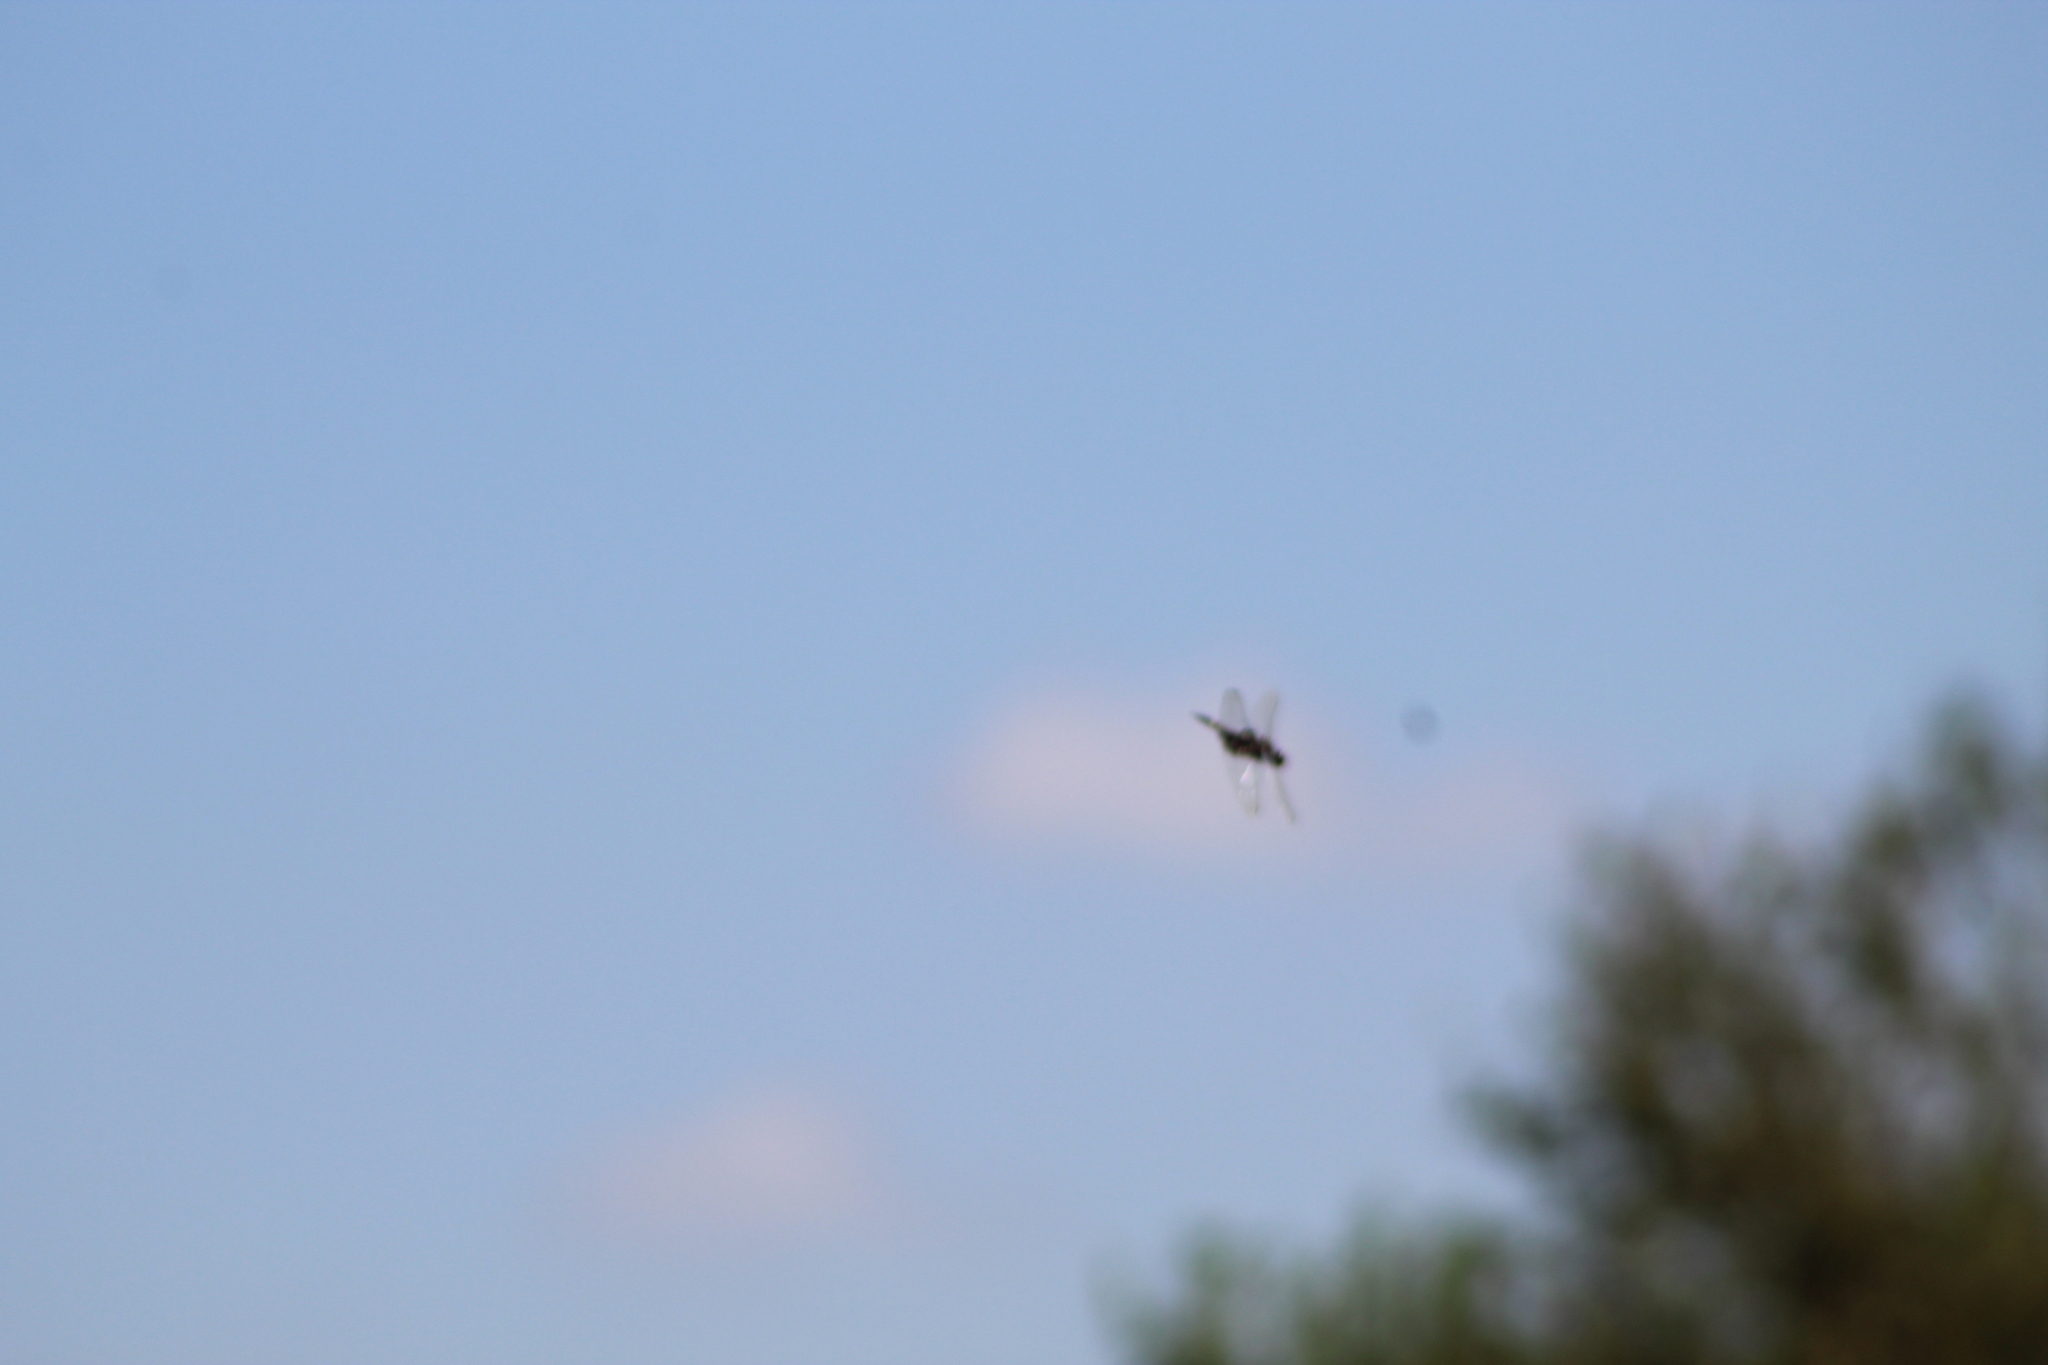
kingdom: Animalia
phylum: Chordata
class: Aves
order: Pelecaniformes
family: Ardeidae
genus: Ardea
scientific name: Ardea alba
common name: Great egret
